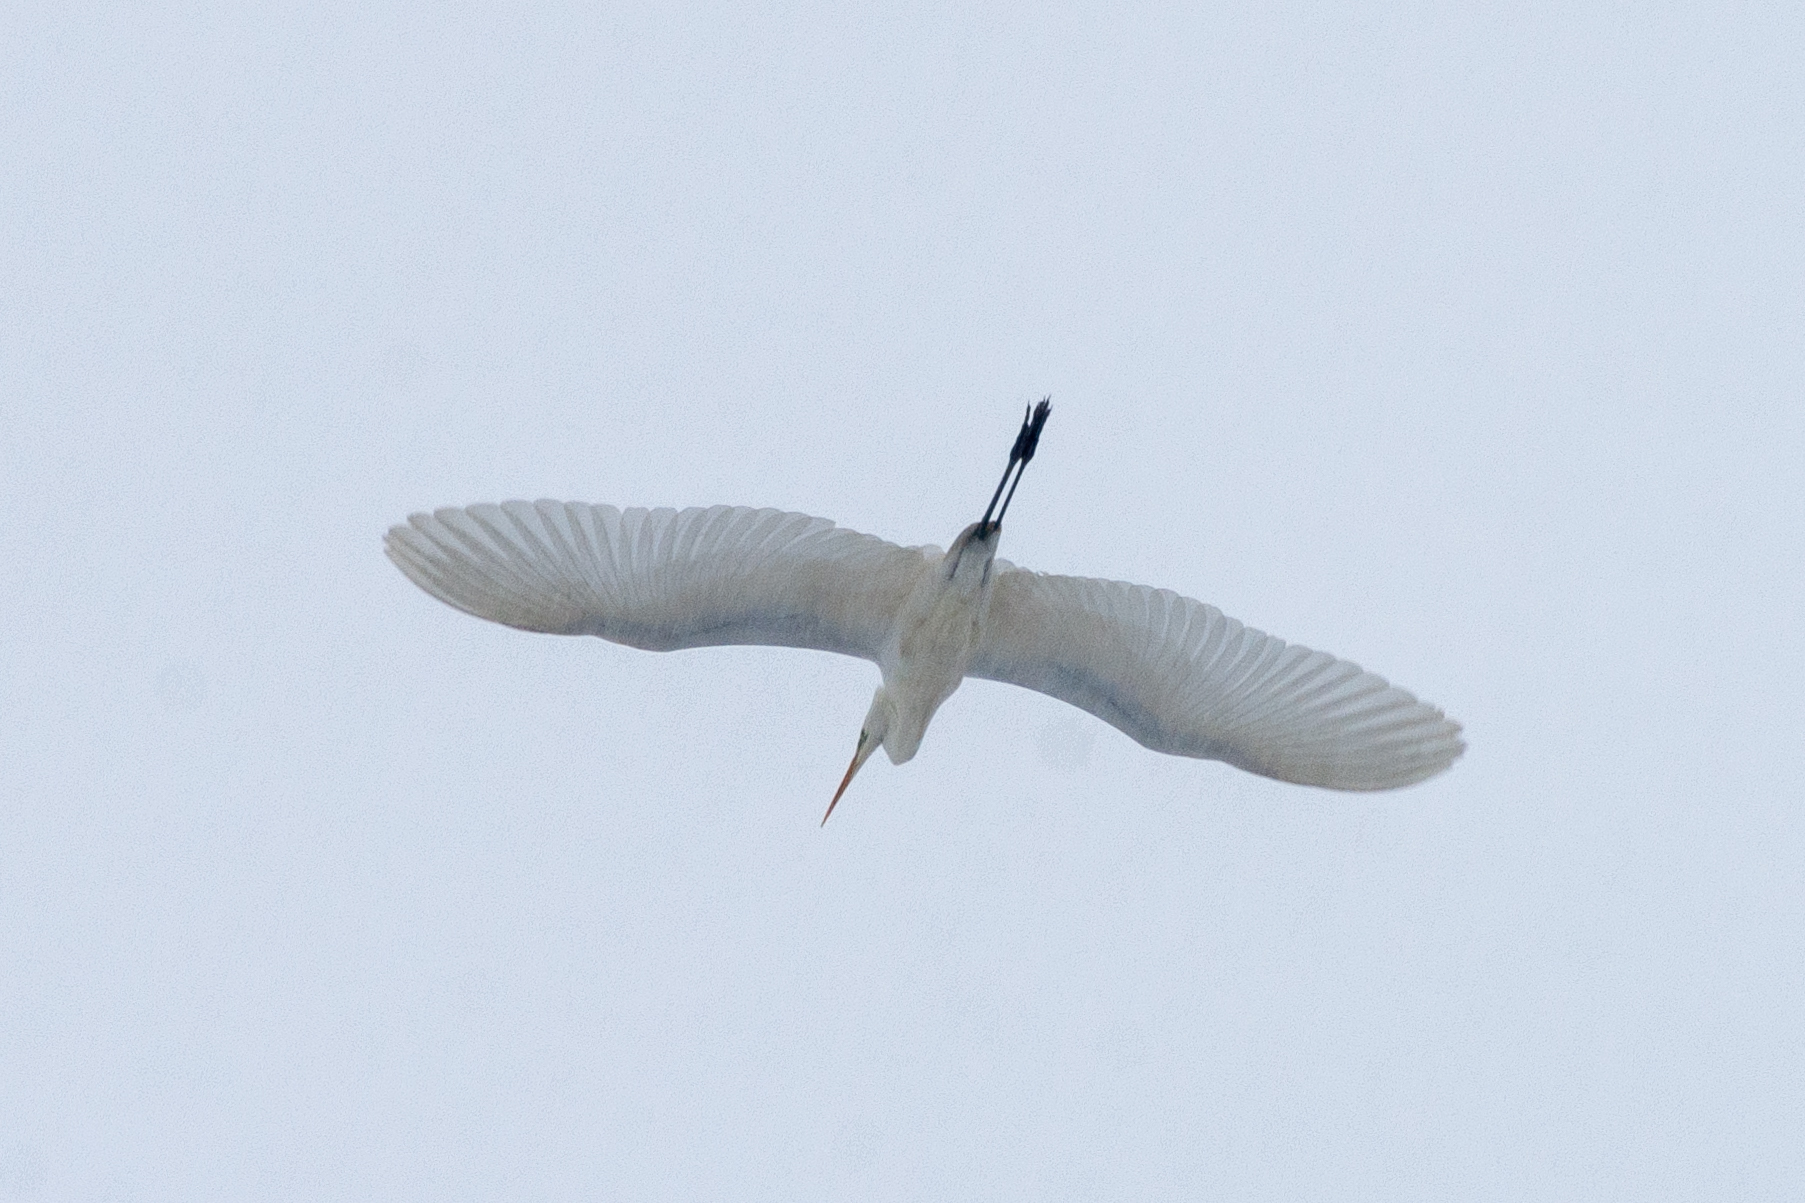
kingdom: Animalia
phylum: Chordata
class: Aves
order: Pelecaniformes
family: Ardeidae
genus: Ardea
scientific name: Ardea alba
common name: Great egret
